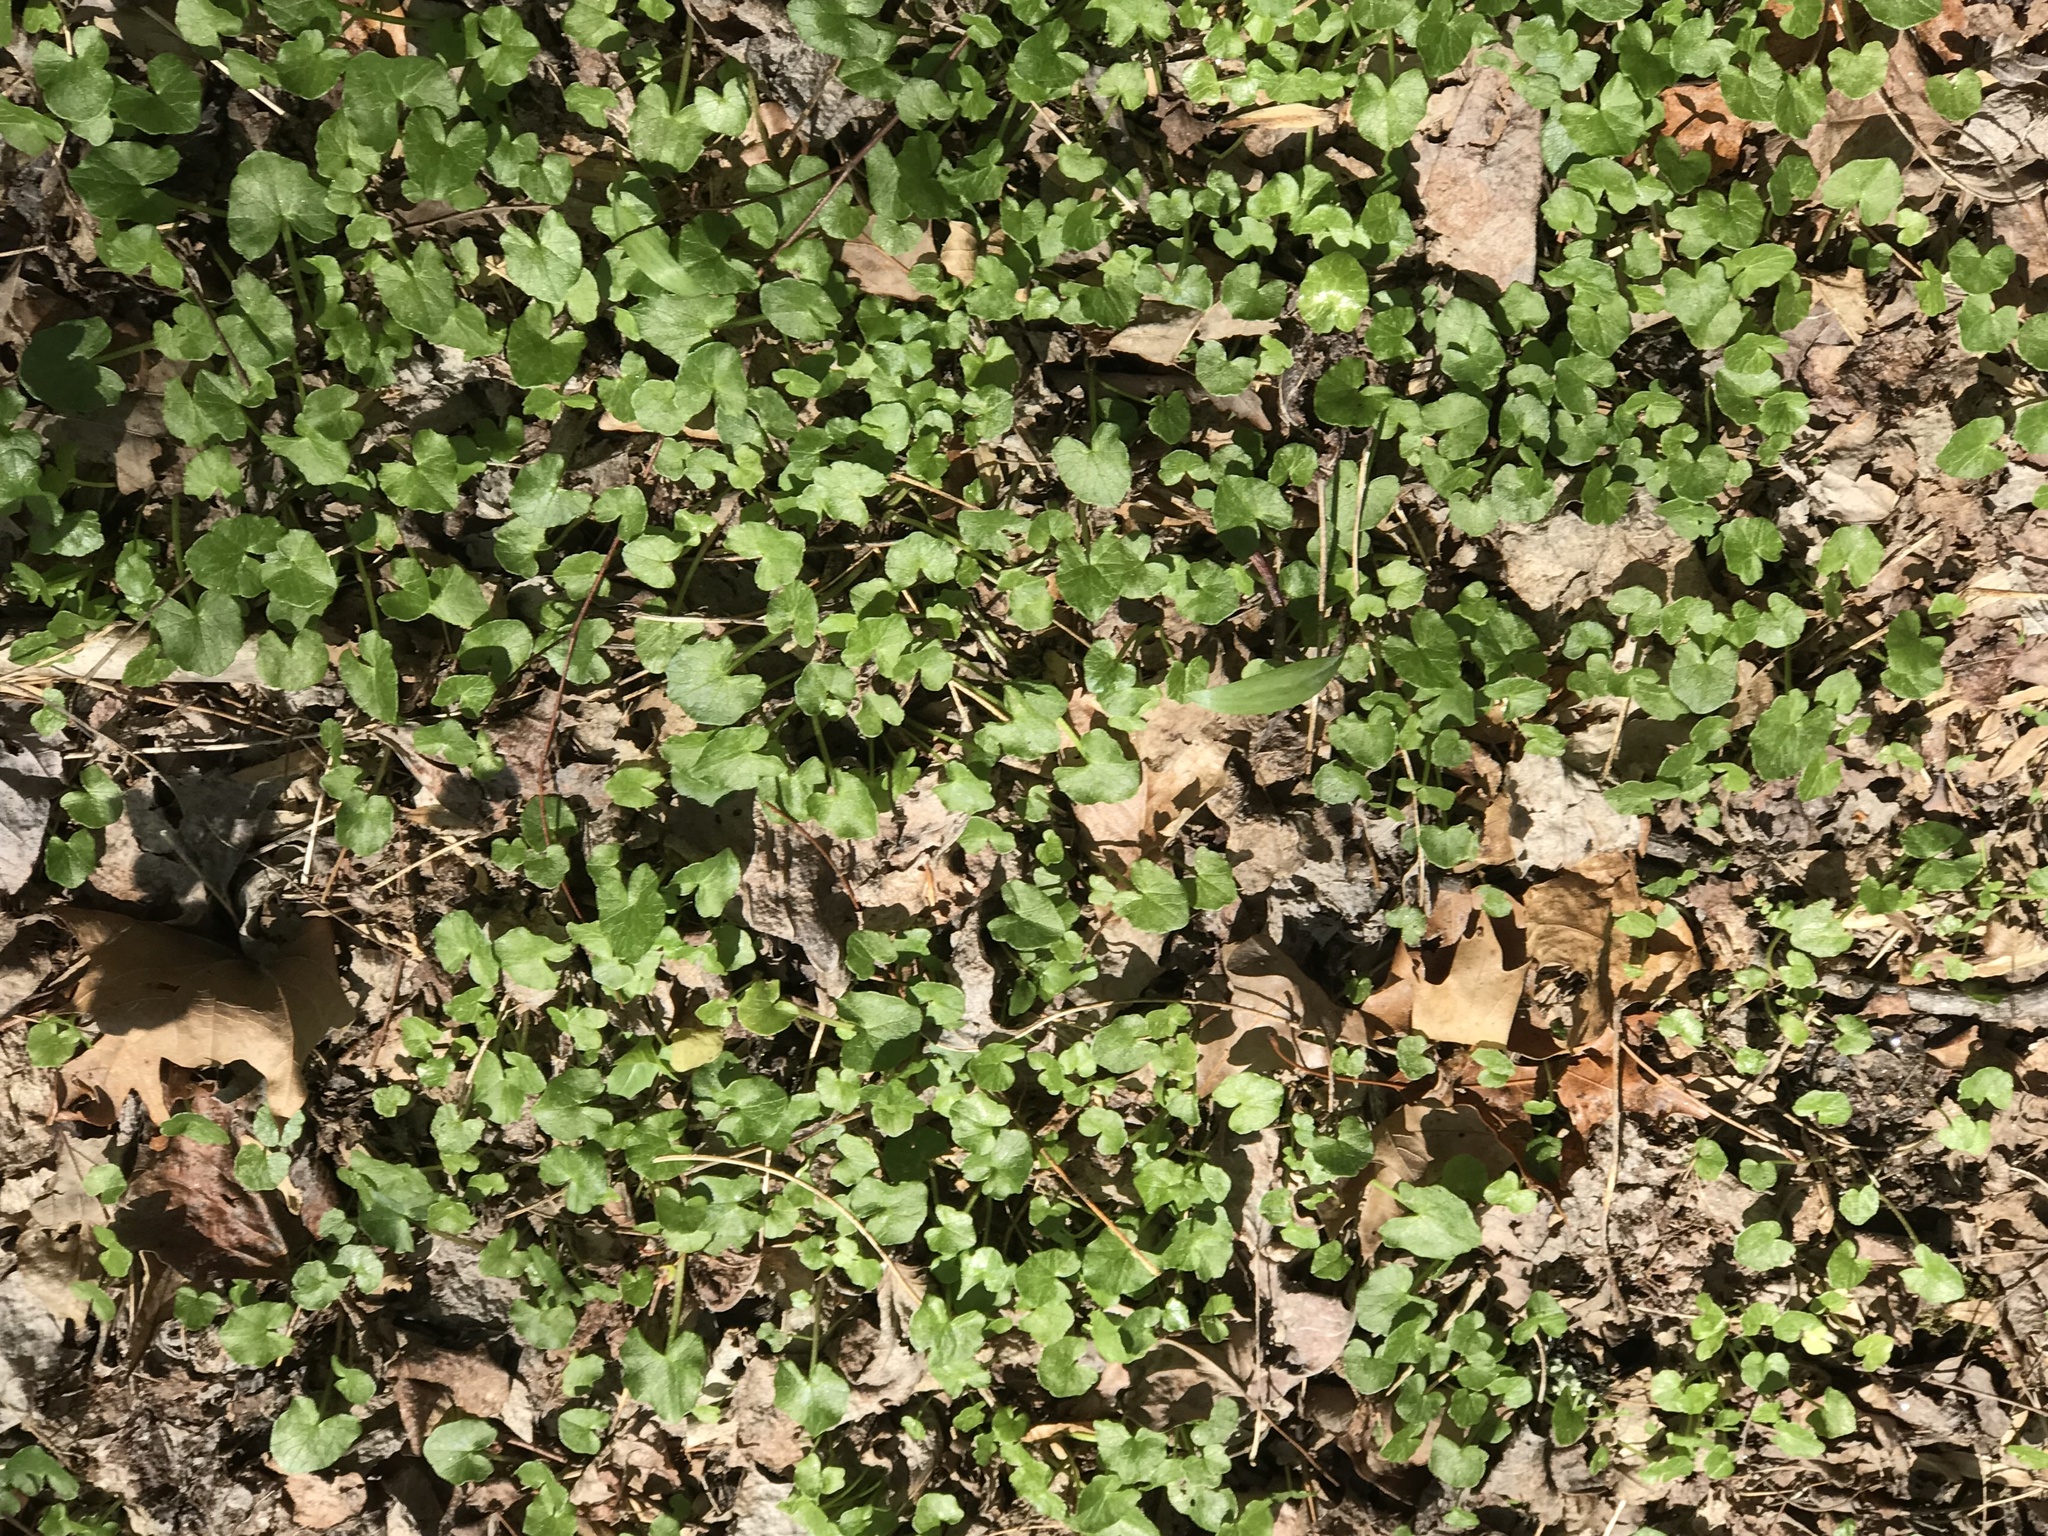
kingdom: Plantae
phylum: Tracheophyta
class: Magnoliopsida
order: Ranunculales
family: Ranunculaceae
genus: Ficaria
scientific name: Ficaria verna
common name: Lesser celandine
